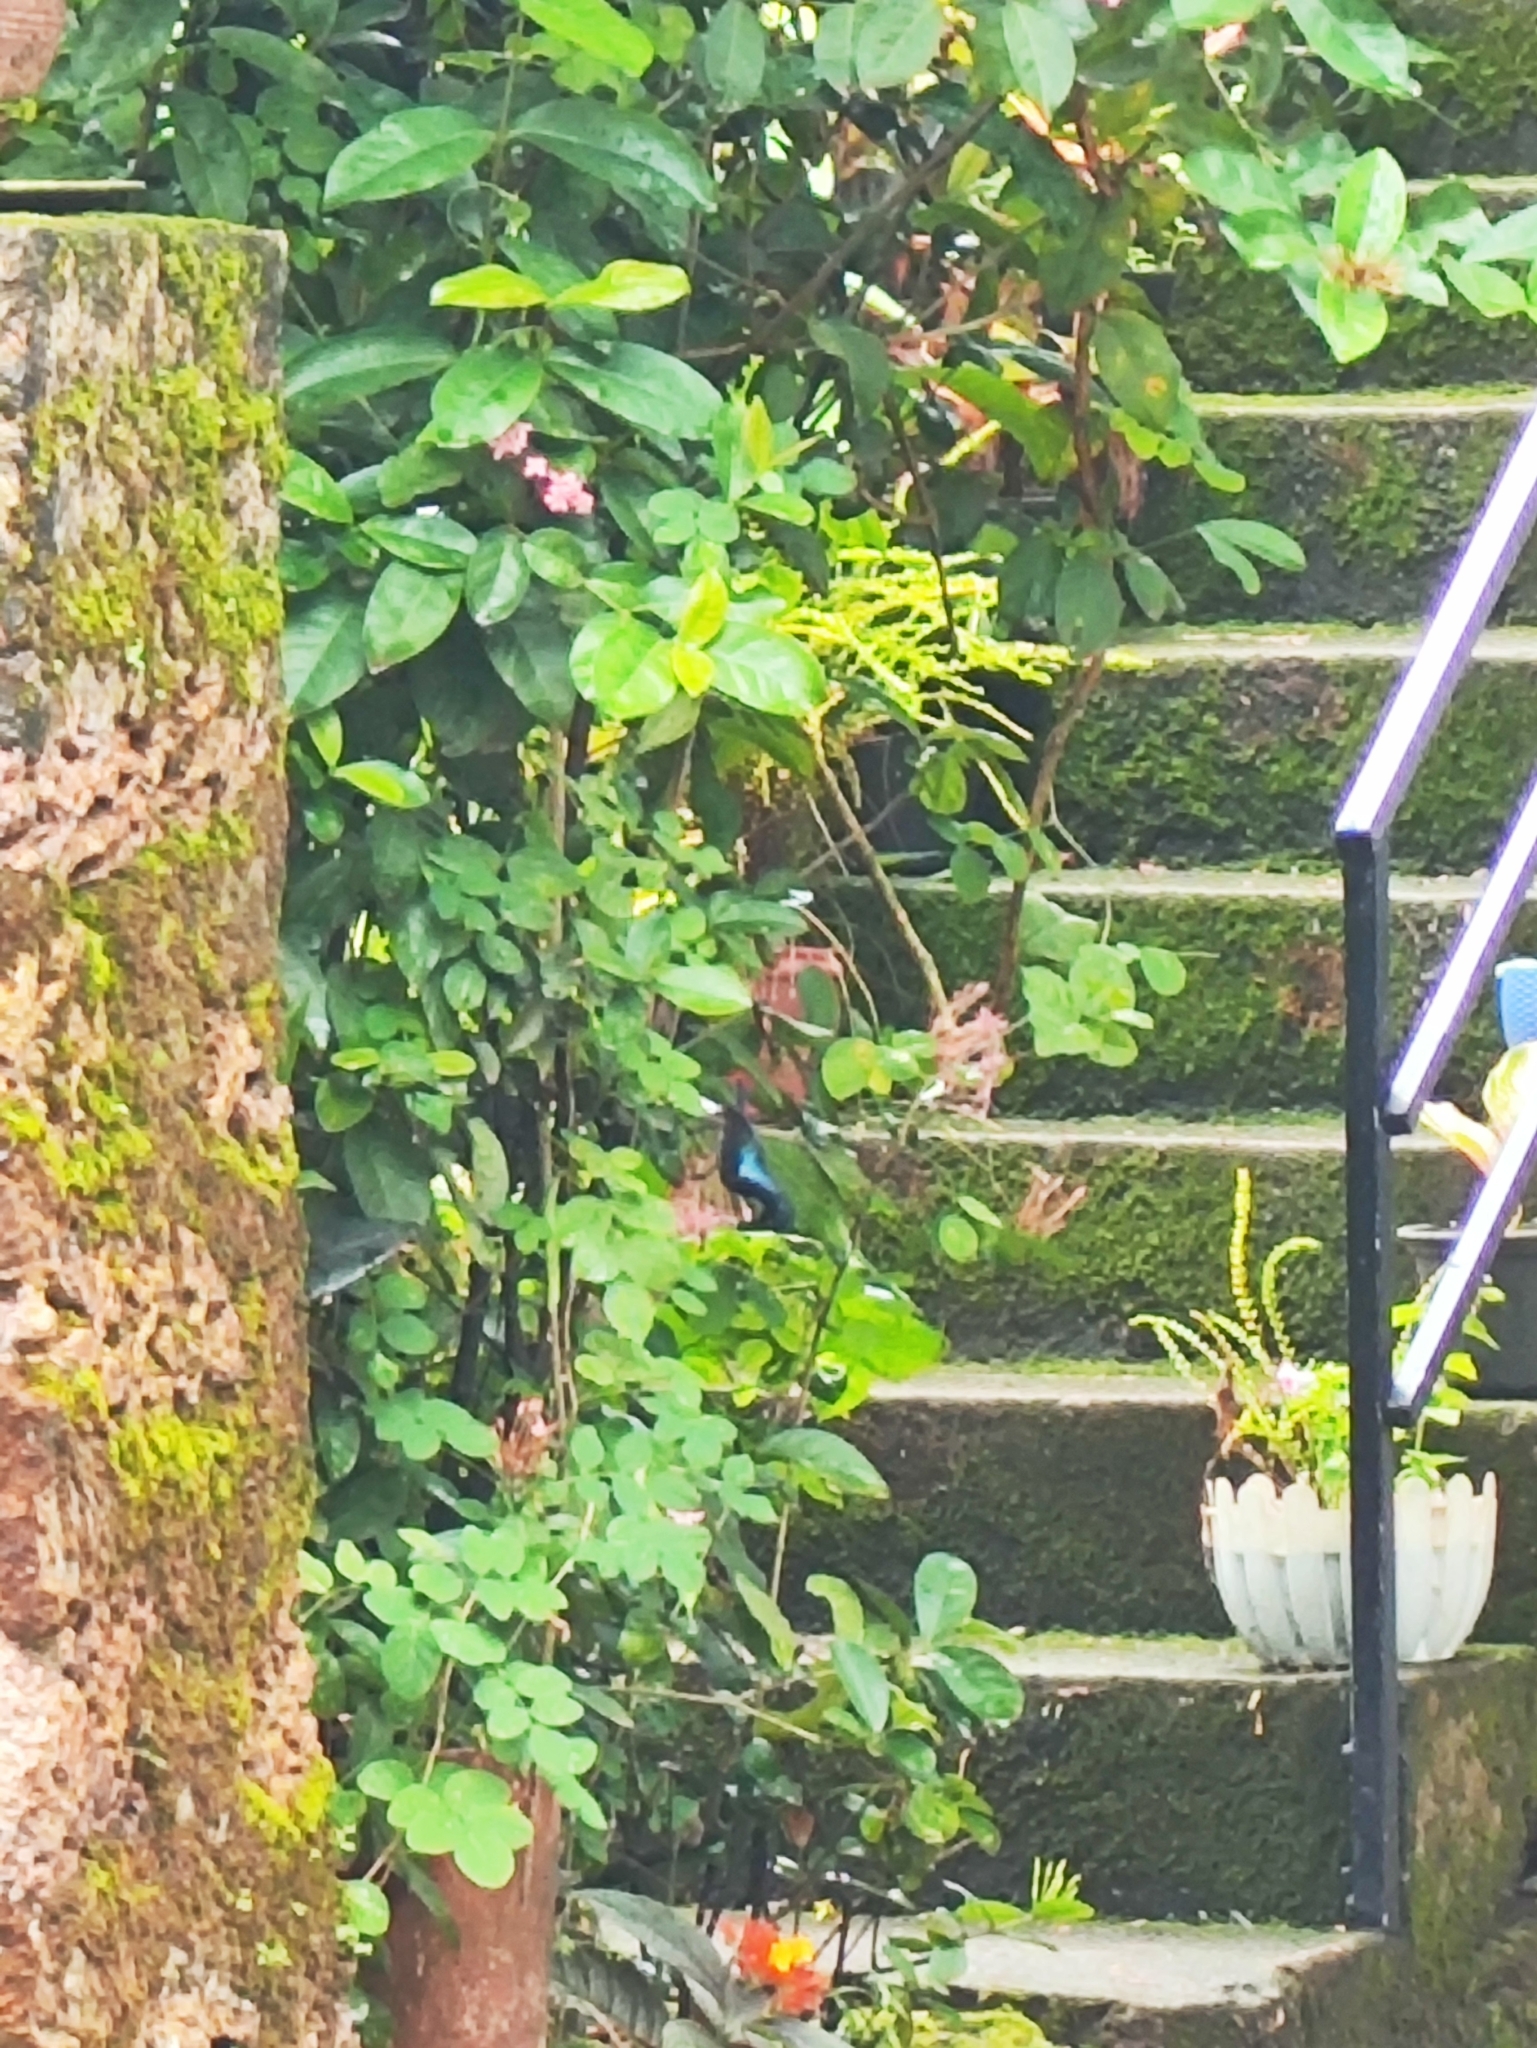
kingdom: Animalia
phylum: Chordata
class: Aves
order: Passeriformes
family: Nectariniidae
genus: Cinnyris
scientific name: Cinnyris lotenius
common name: Loten's sunbird
